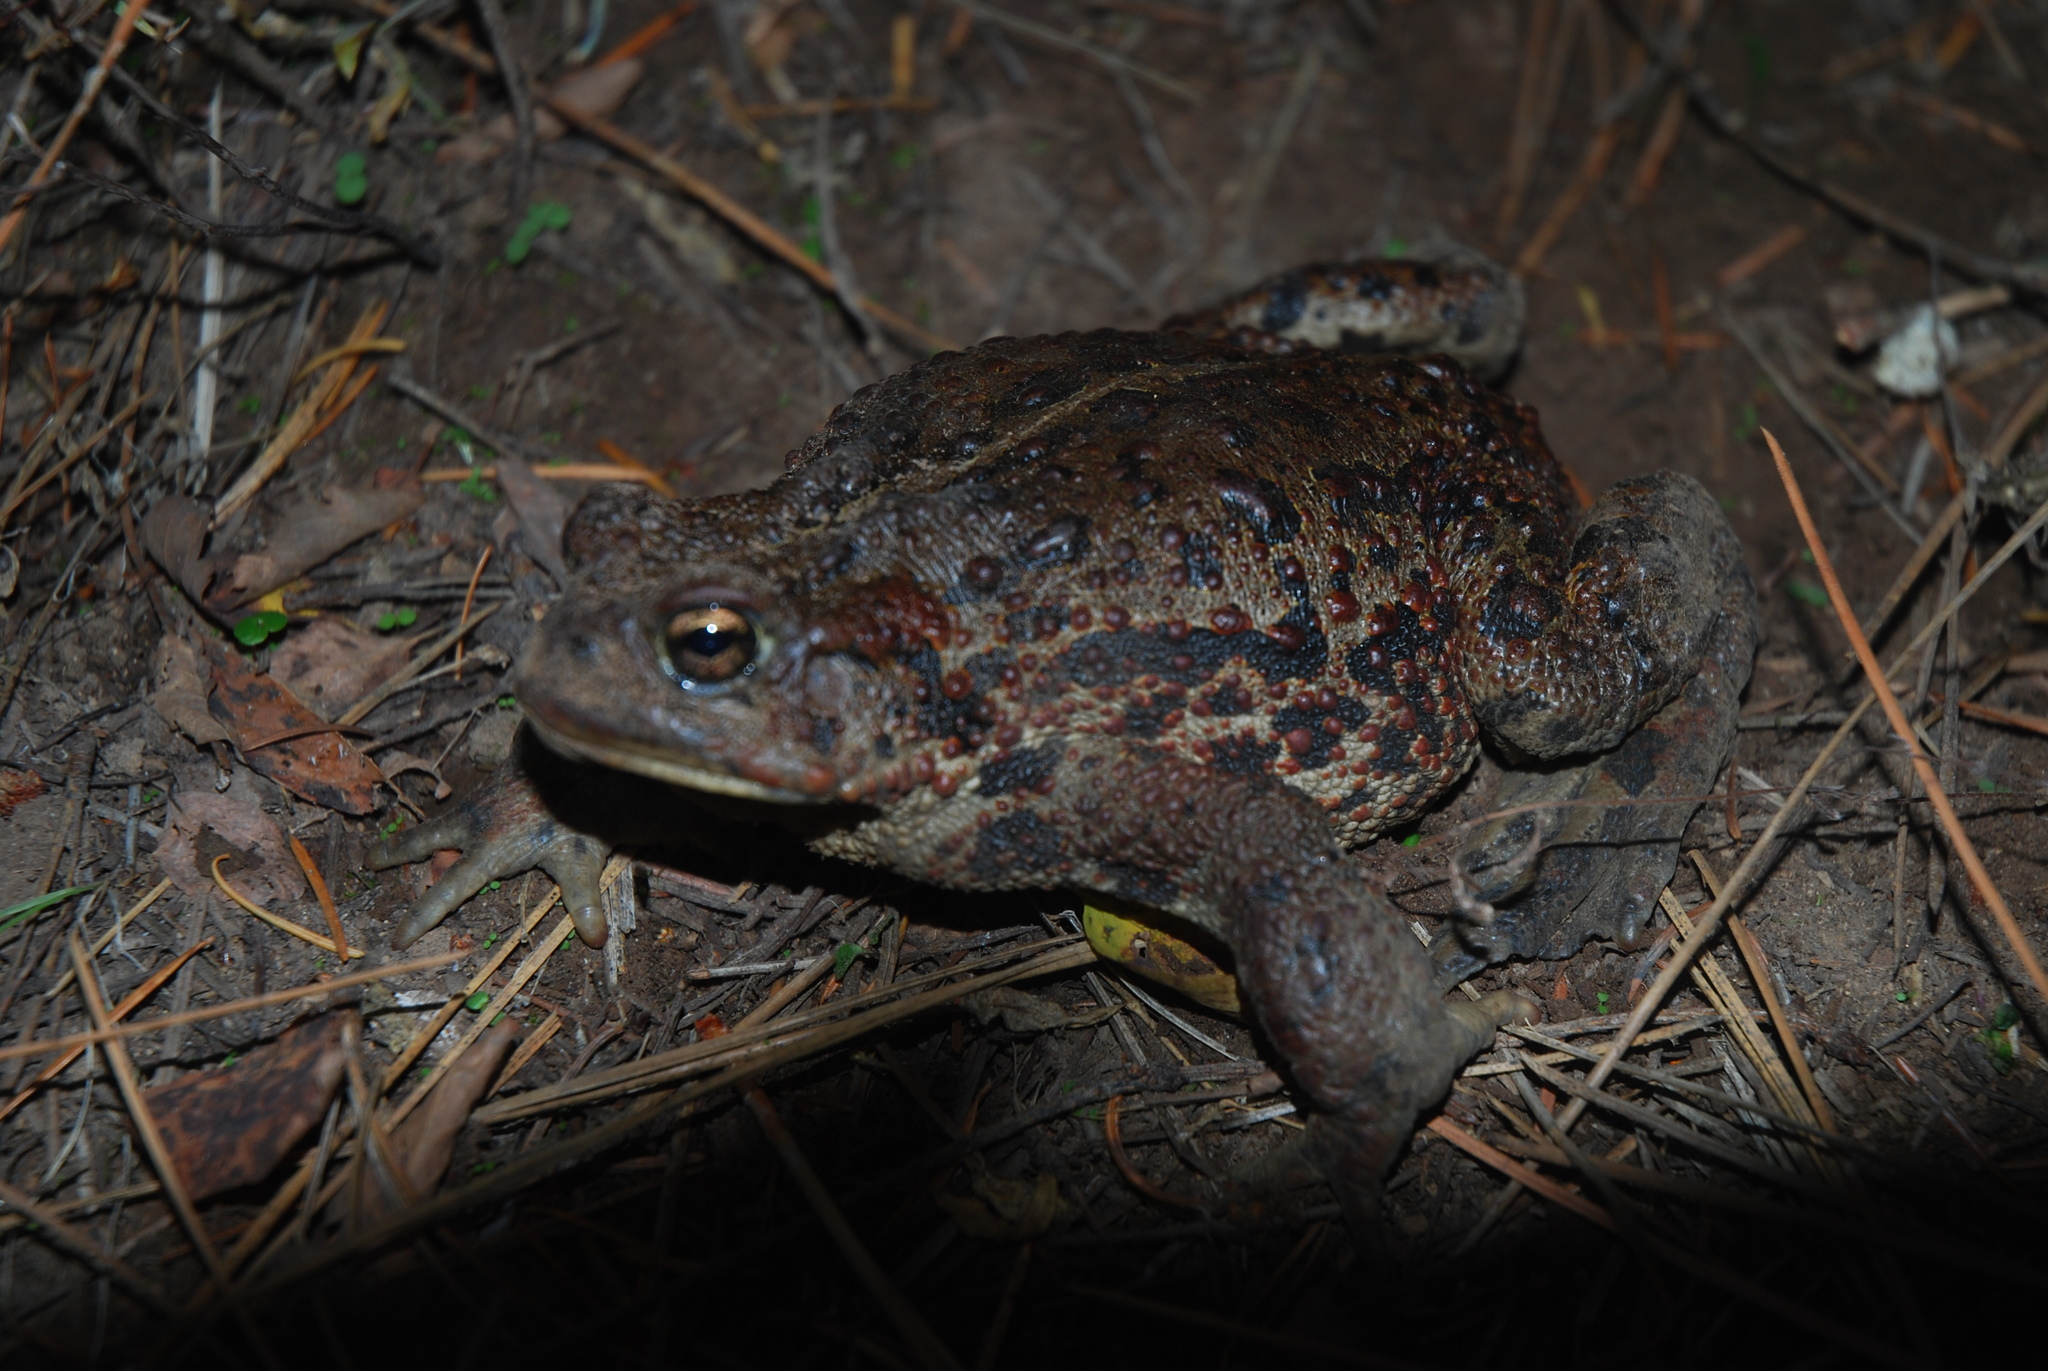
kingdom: Animalia
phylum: Chordata
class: Amphibia
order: Anura
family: Bufonidae
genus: Anaxyrus
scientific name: Anaxyrus boreas
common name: Western toad
